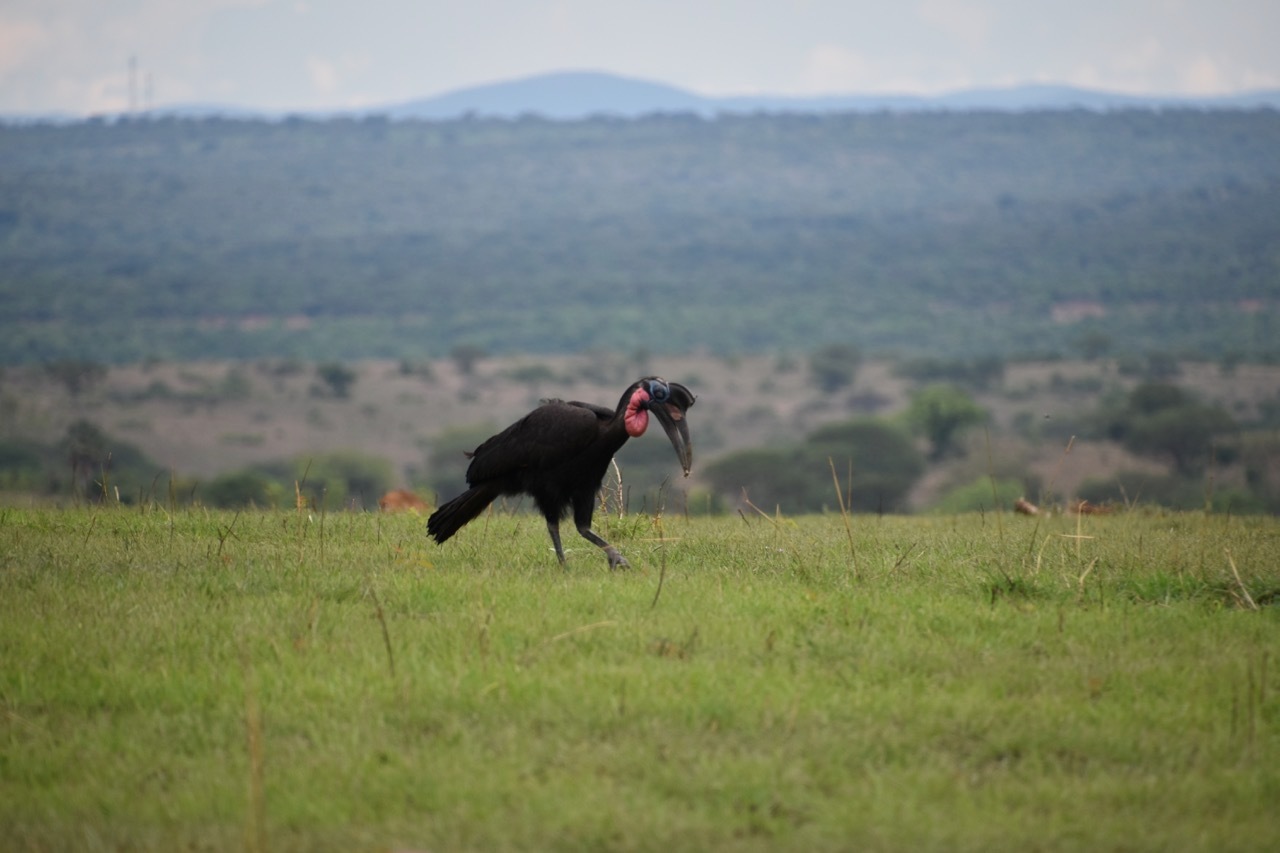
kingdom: Animalia
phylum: Chordata
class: Aves
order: Bucerotiformes
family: Bucorvidae
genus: Bucorvus
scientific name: Bucorvus abyssinicus
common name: Abyssinian ground hornbill
